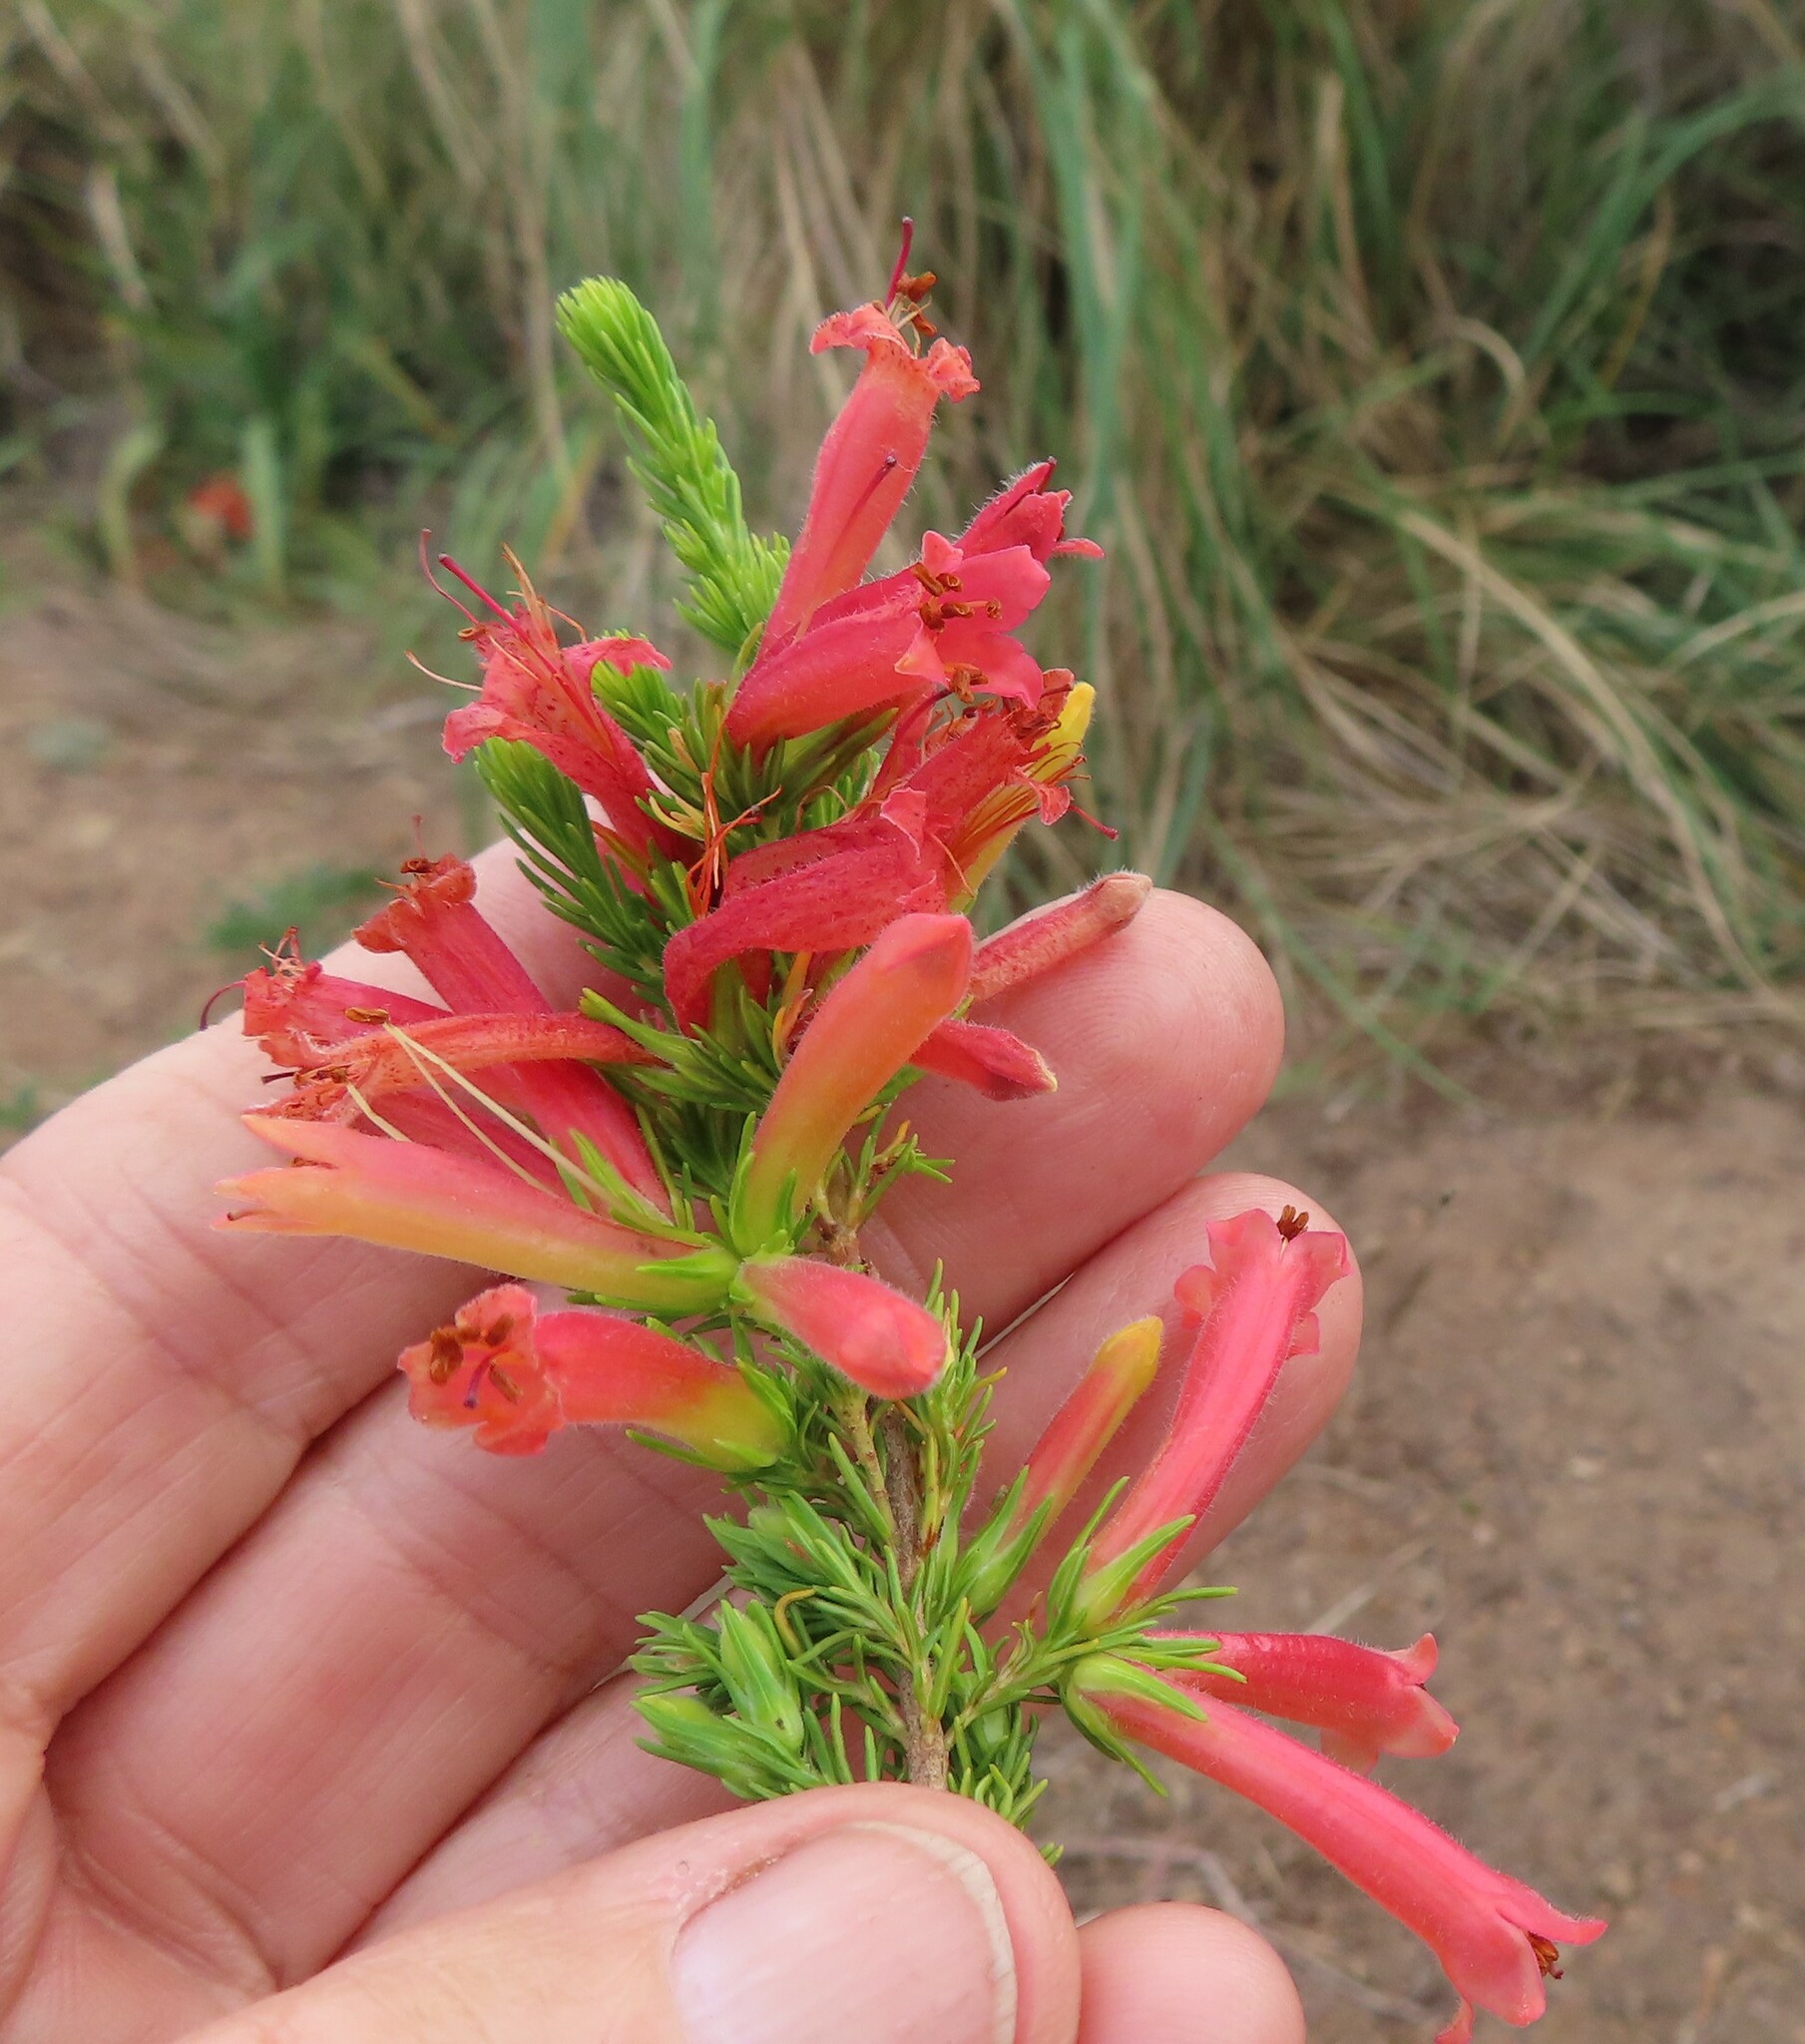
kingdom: Plantae
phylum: Tracheophyta
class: Magnoliopsida
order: Ericales
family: Ericaceae
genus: Erica
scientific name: Erica curviflora
